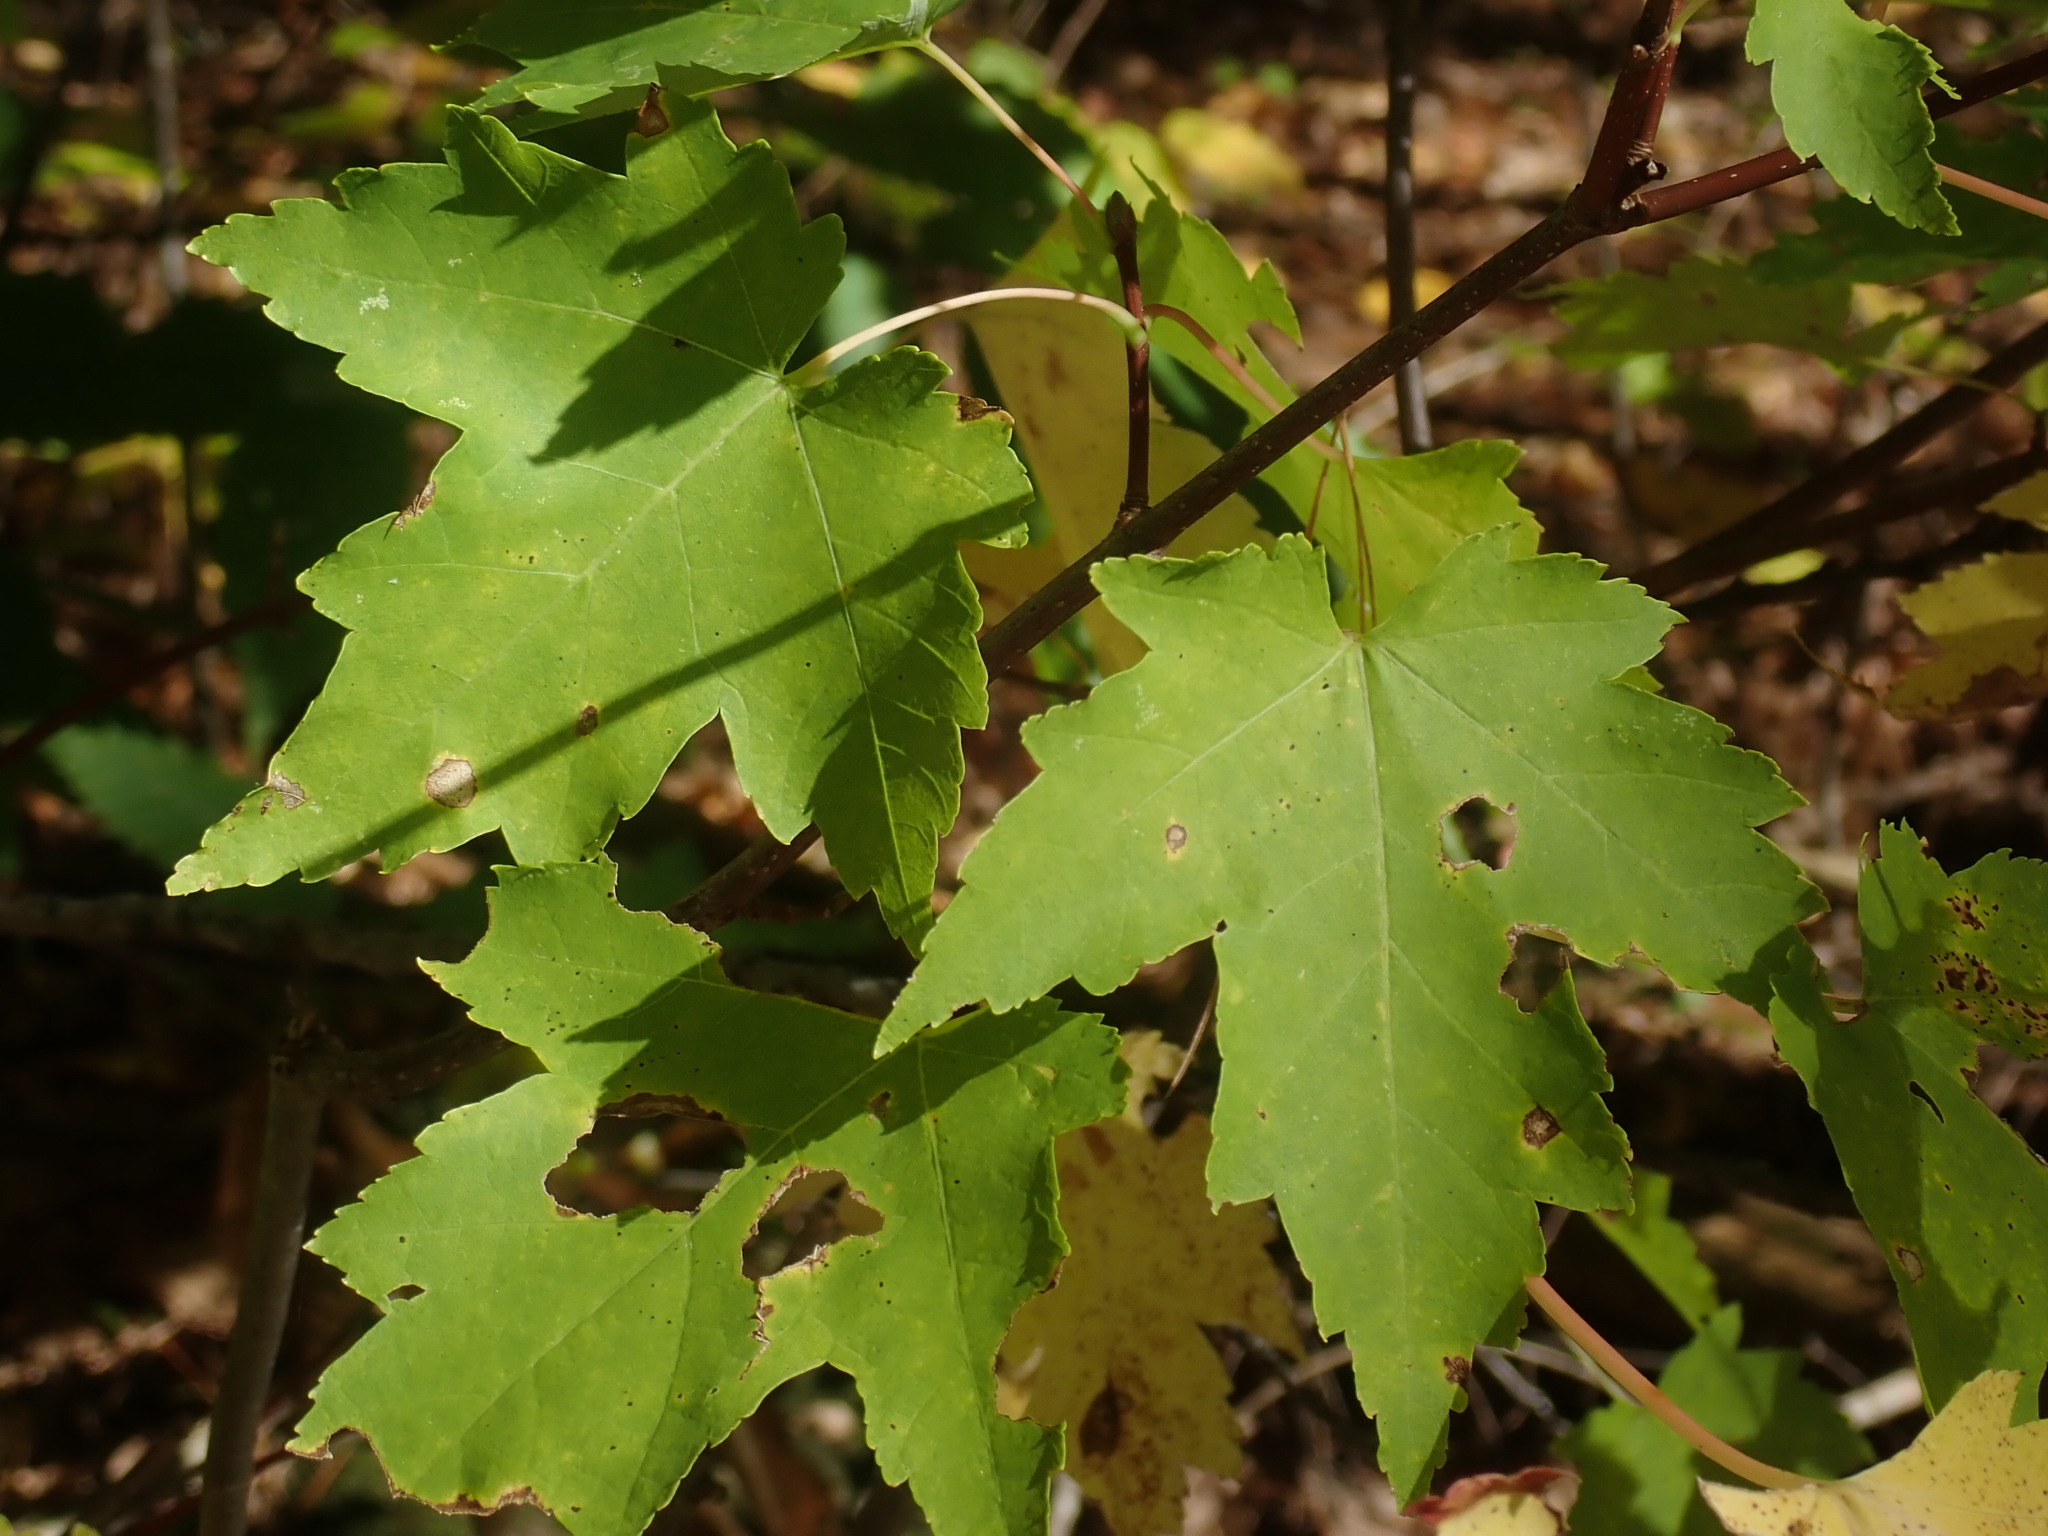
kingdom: Plantae
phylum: Tracheophyta
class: Magnoliopsida
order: Sapindales
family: Sapindaceae
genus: Acer
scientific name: Acer rubrum
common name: Red maple
